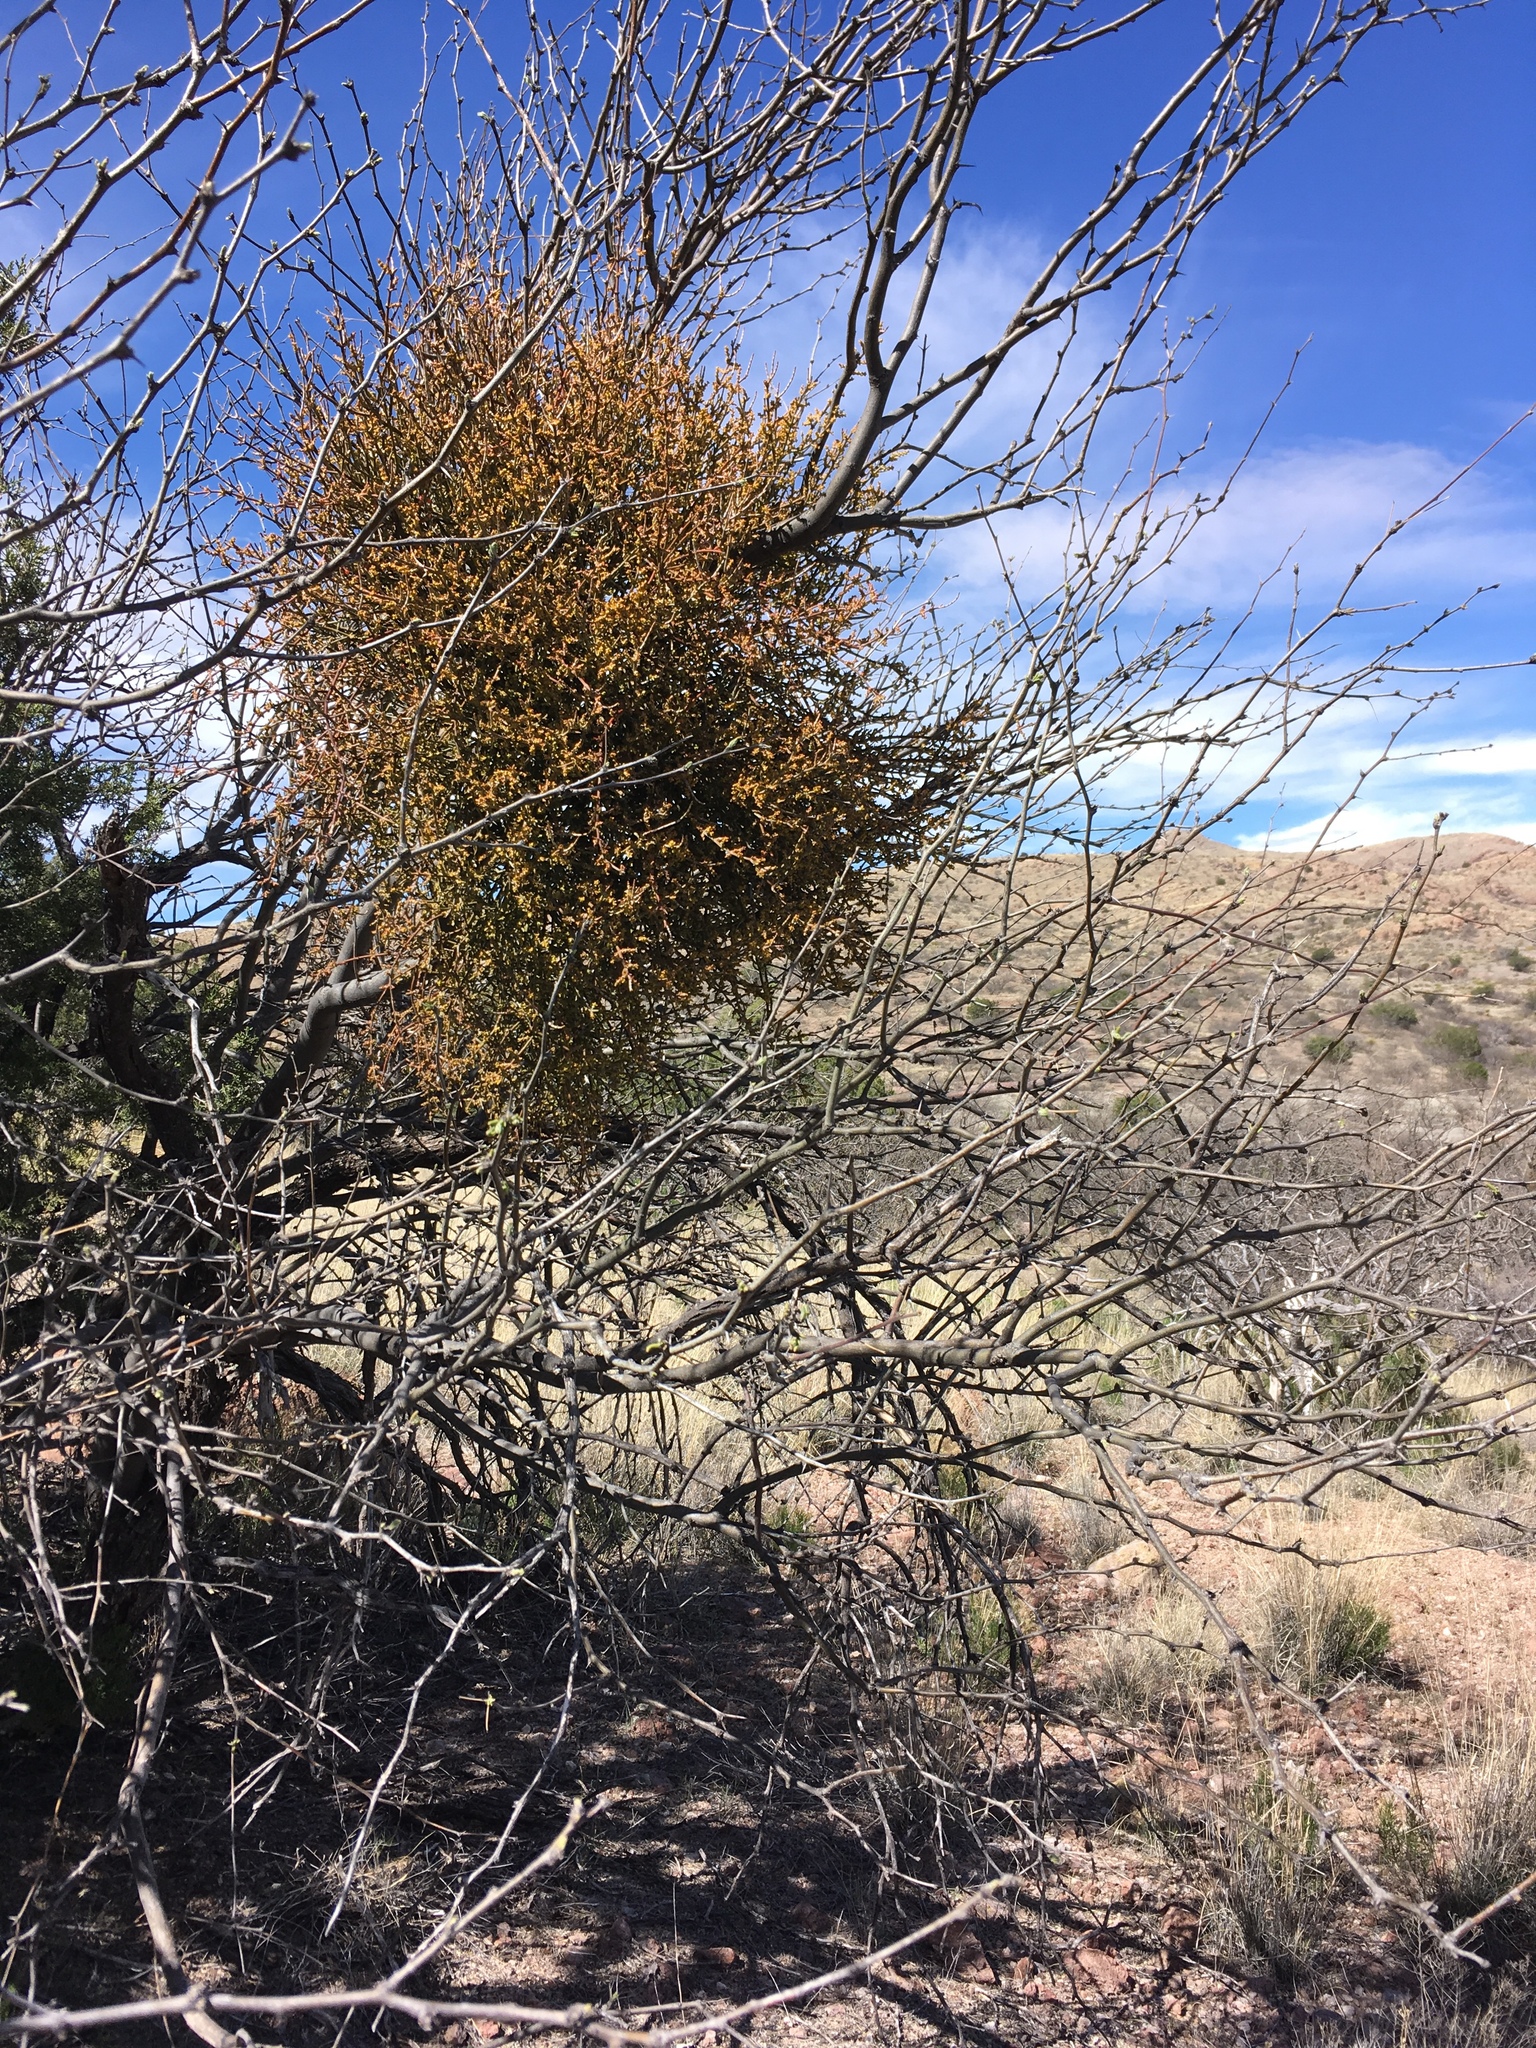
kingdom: Plantae
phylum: Tracheophyta
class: Magnoliopsida
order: Santalales
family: Viscaceae
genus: Phoradendron
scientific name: Phoradendron californicum
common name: Acacia mistletoe
